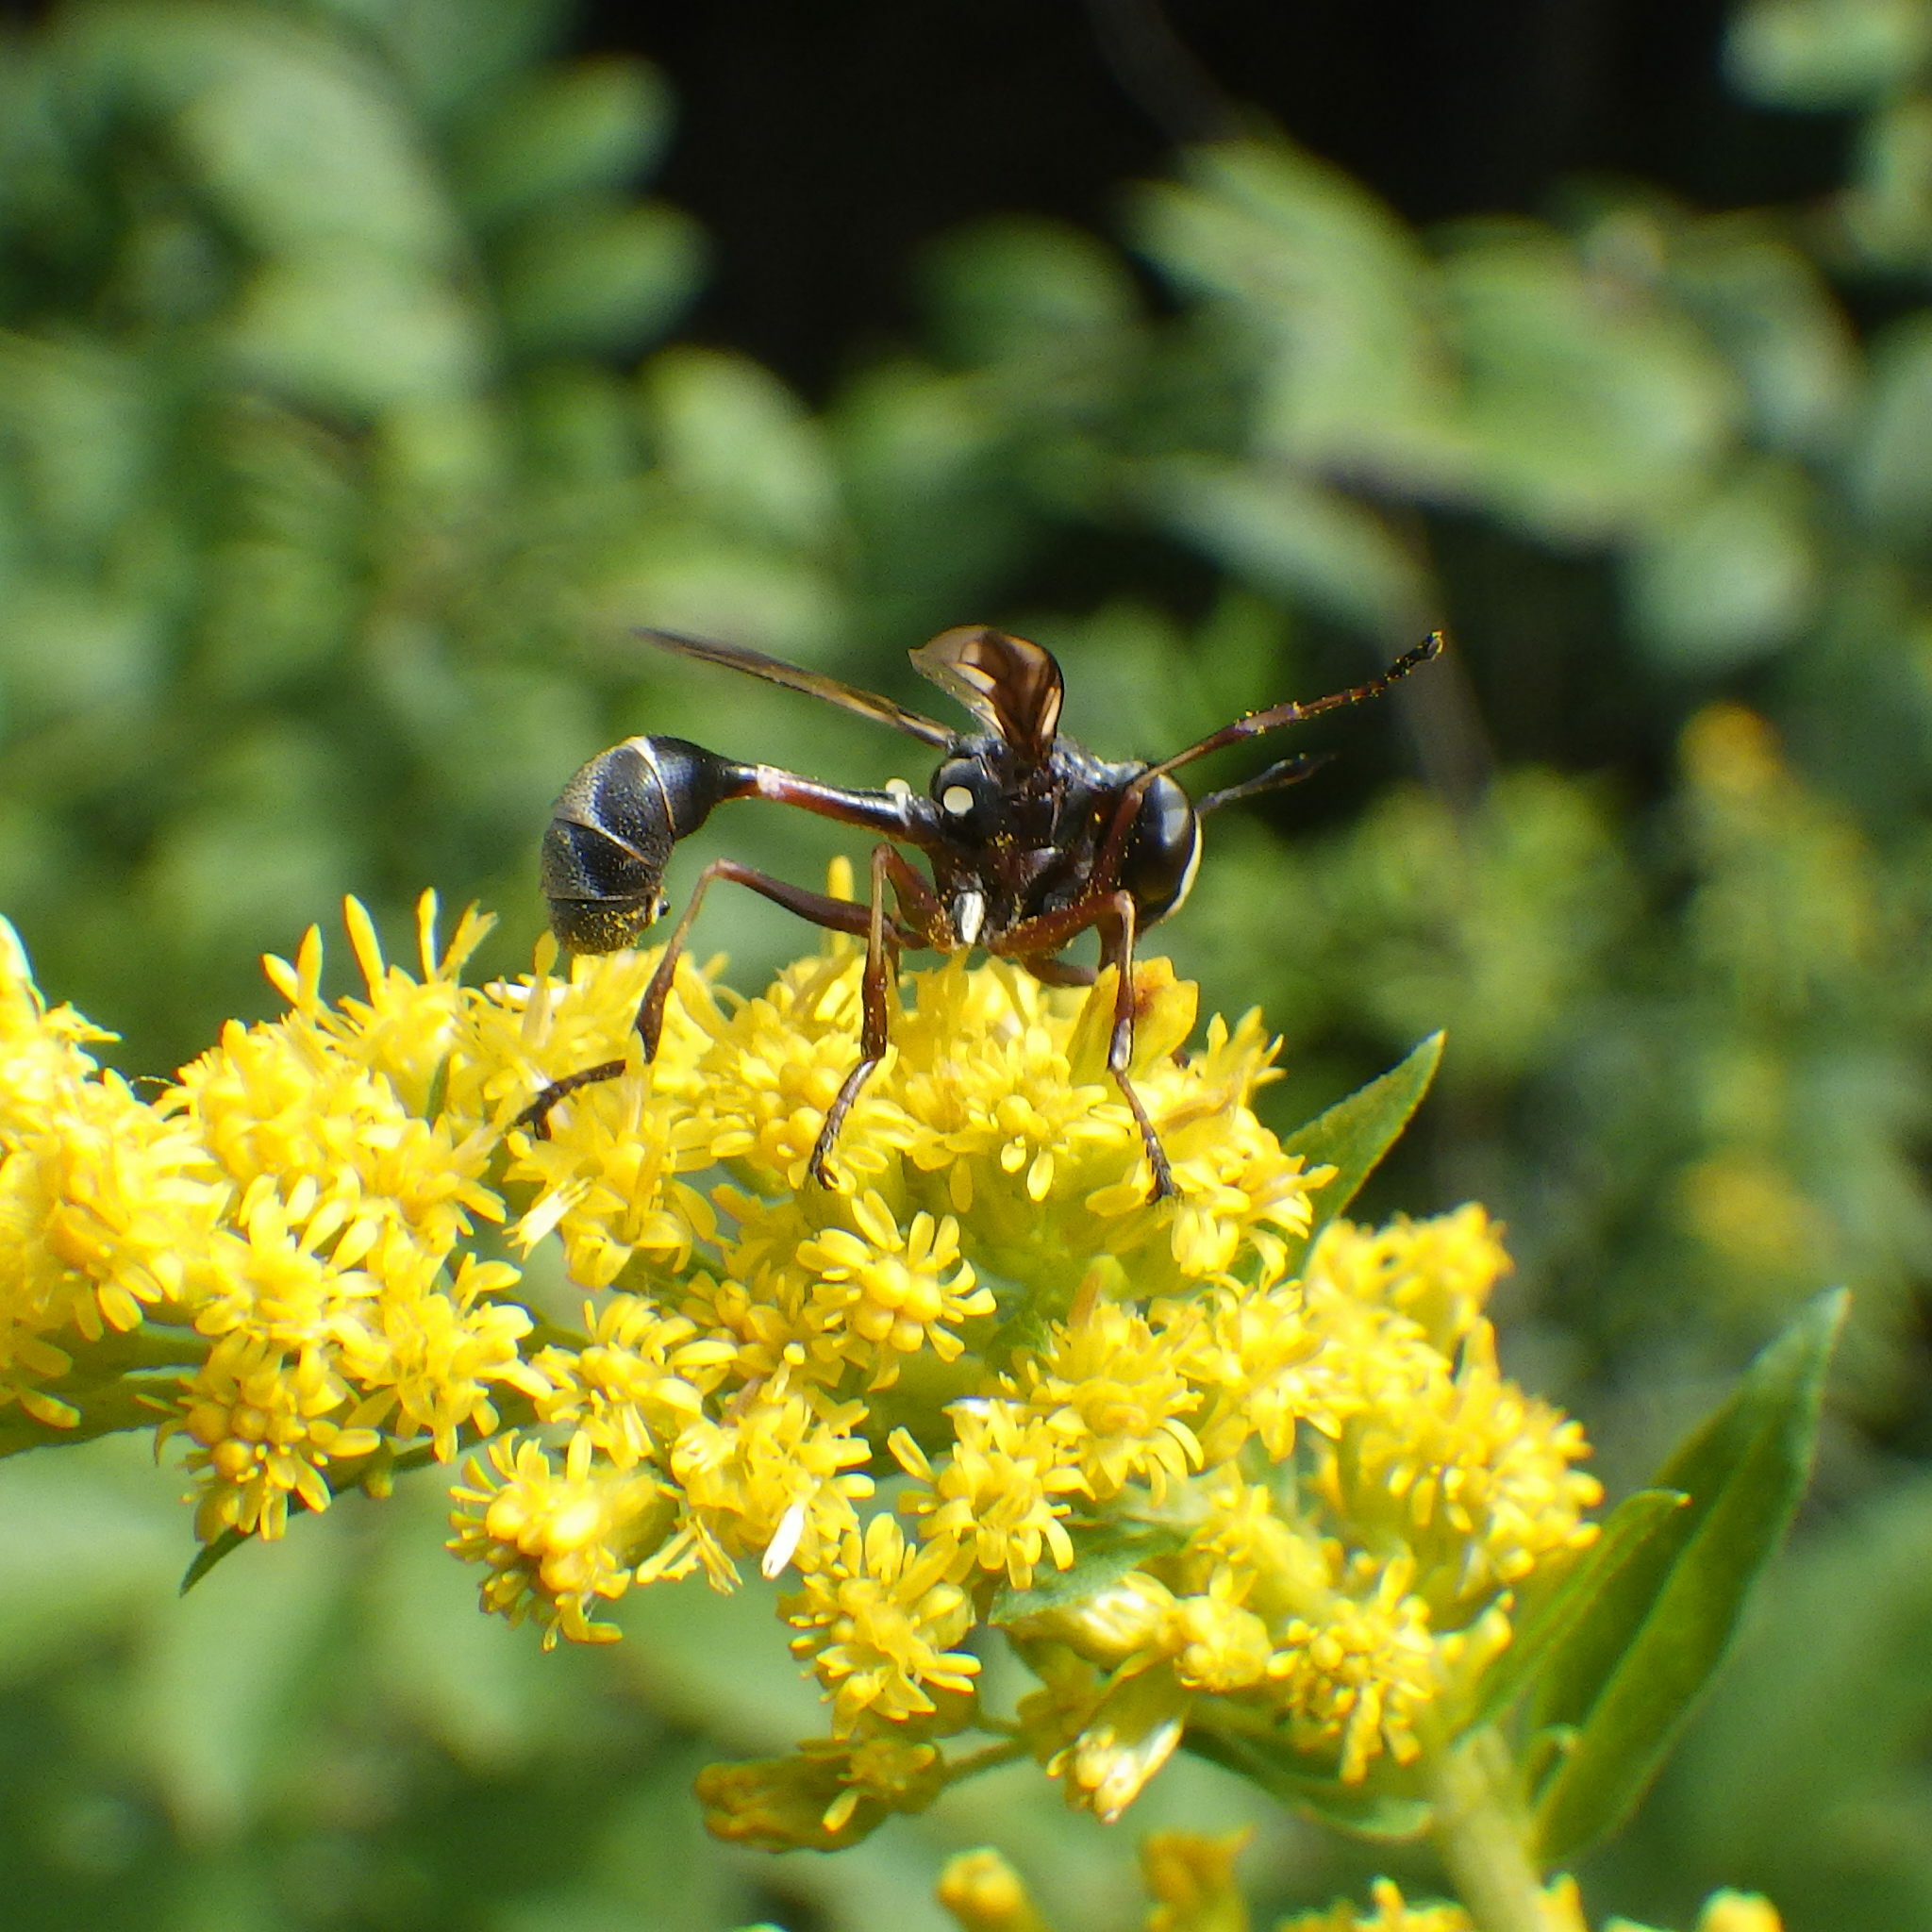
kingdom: Animalia
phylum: Arthropoda
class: Insecta
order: Diptera
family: Conopidae
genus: Physocephala
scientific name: Physocephala furcillata
